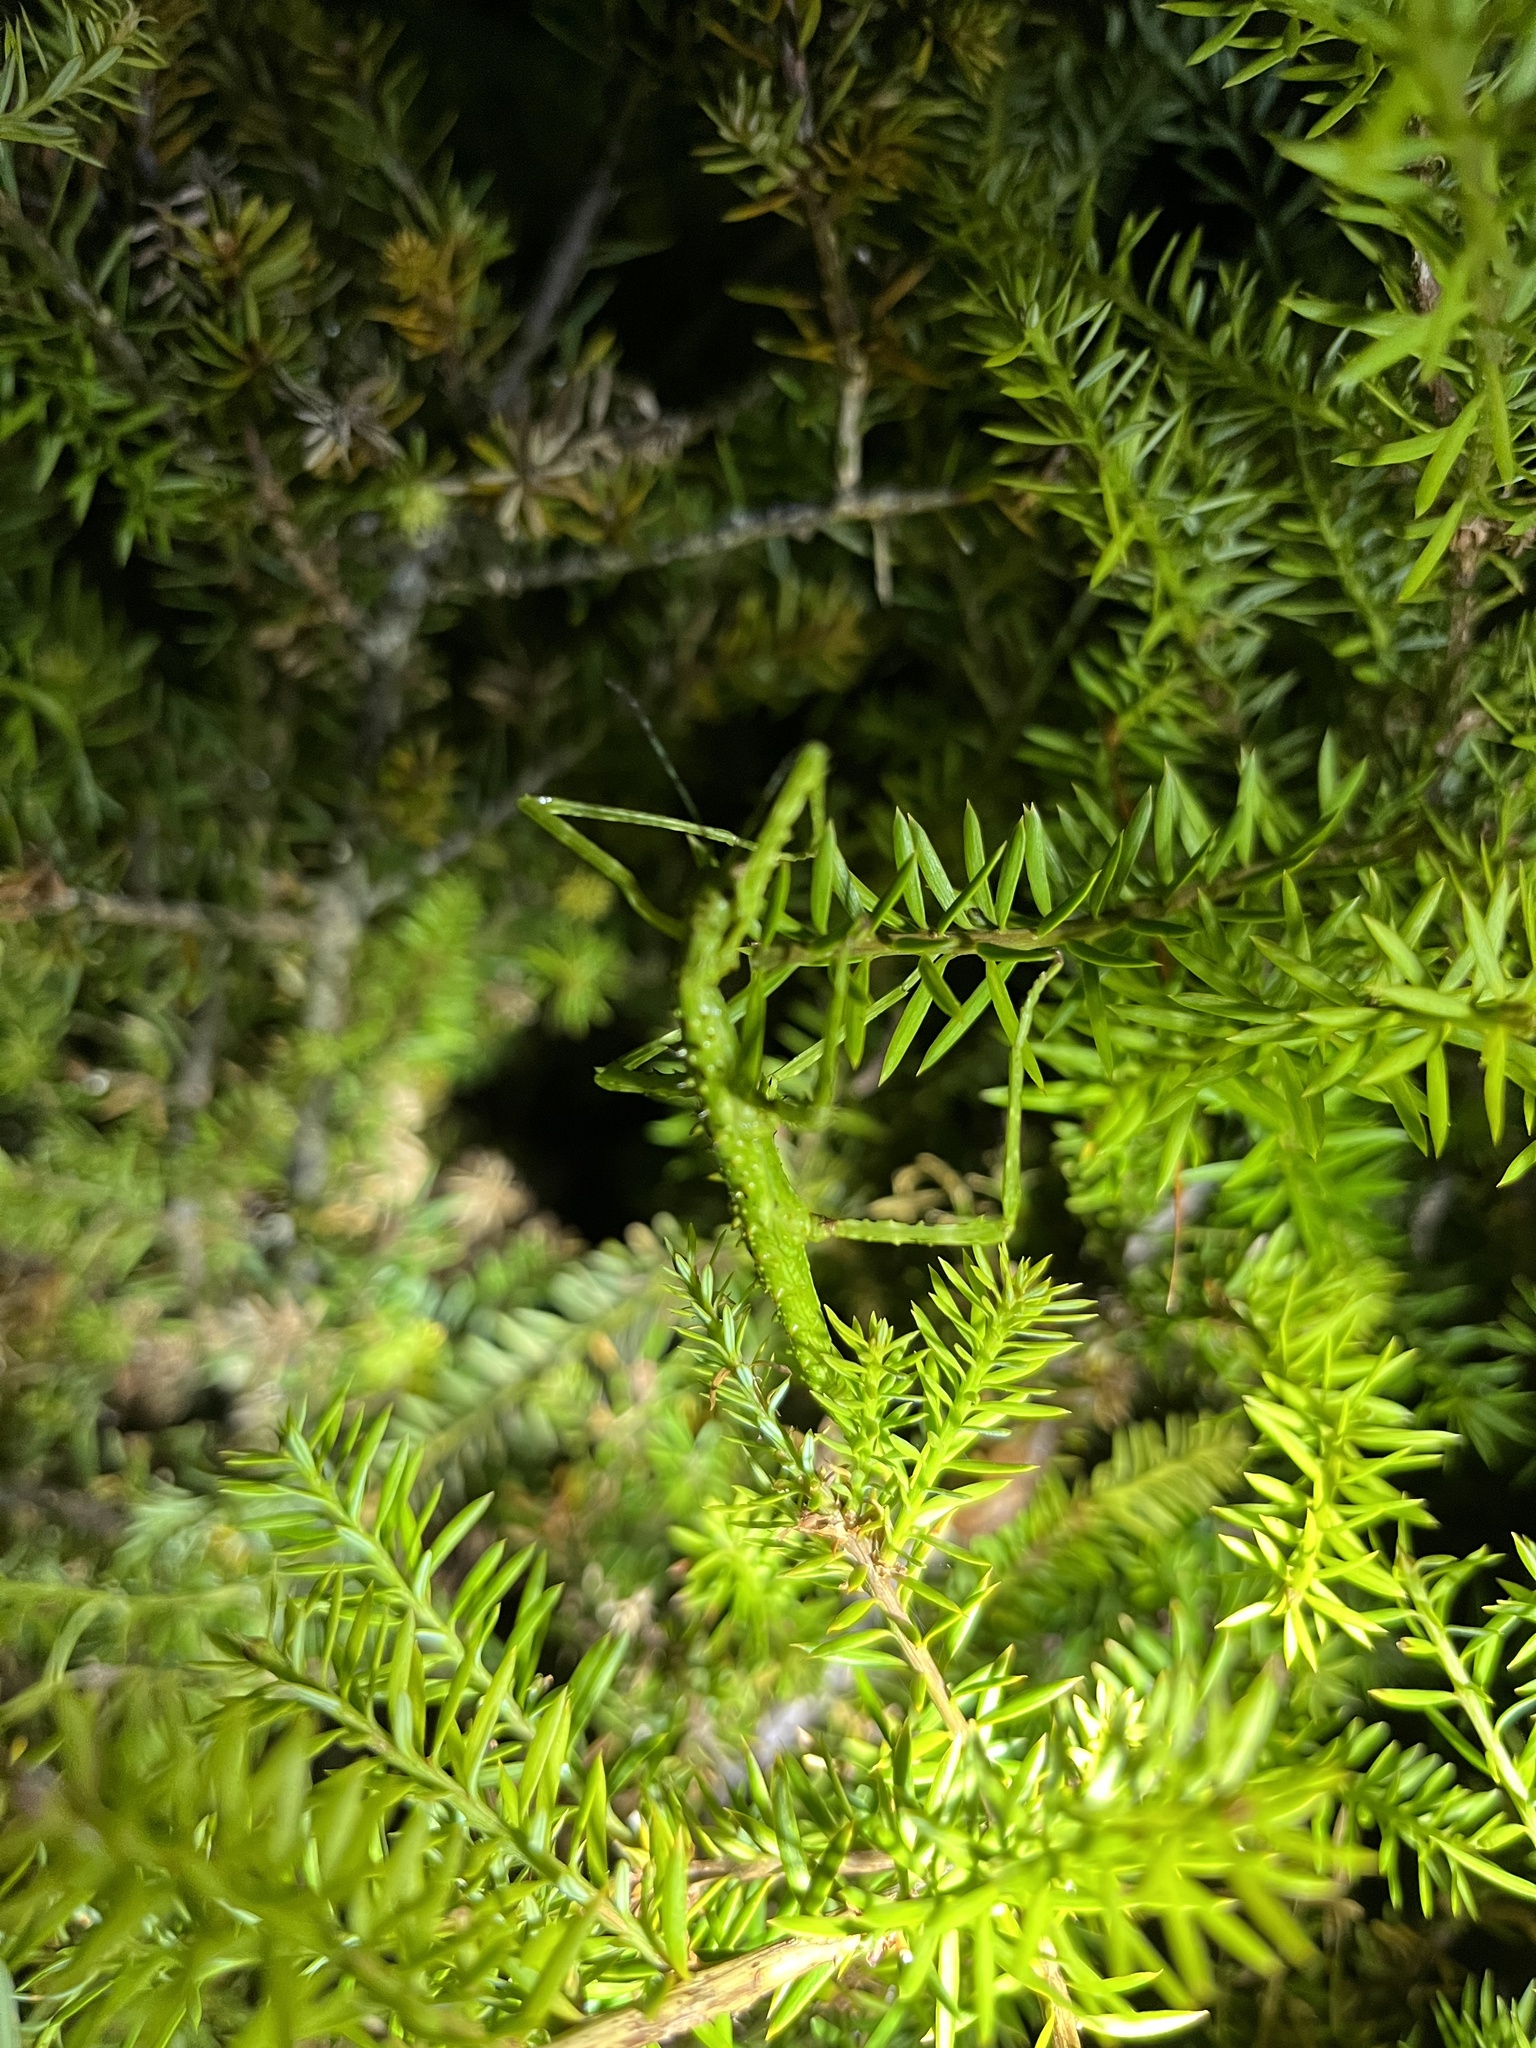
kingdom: Animalia
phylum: Arthropoda
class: Insecta
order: Phasmida
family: Phasmatidae
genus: Clitarchus
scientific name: Clitarchus hookeri
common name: Smooth stick insect
